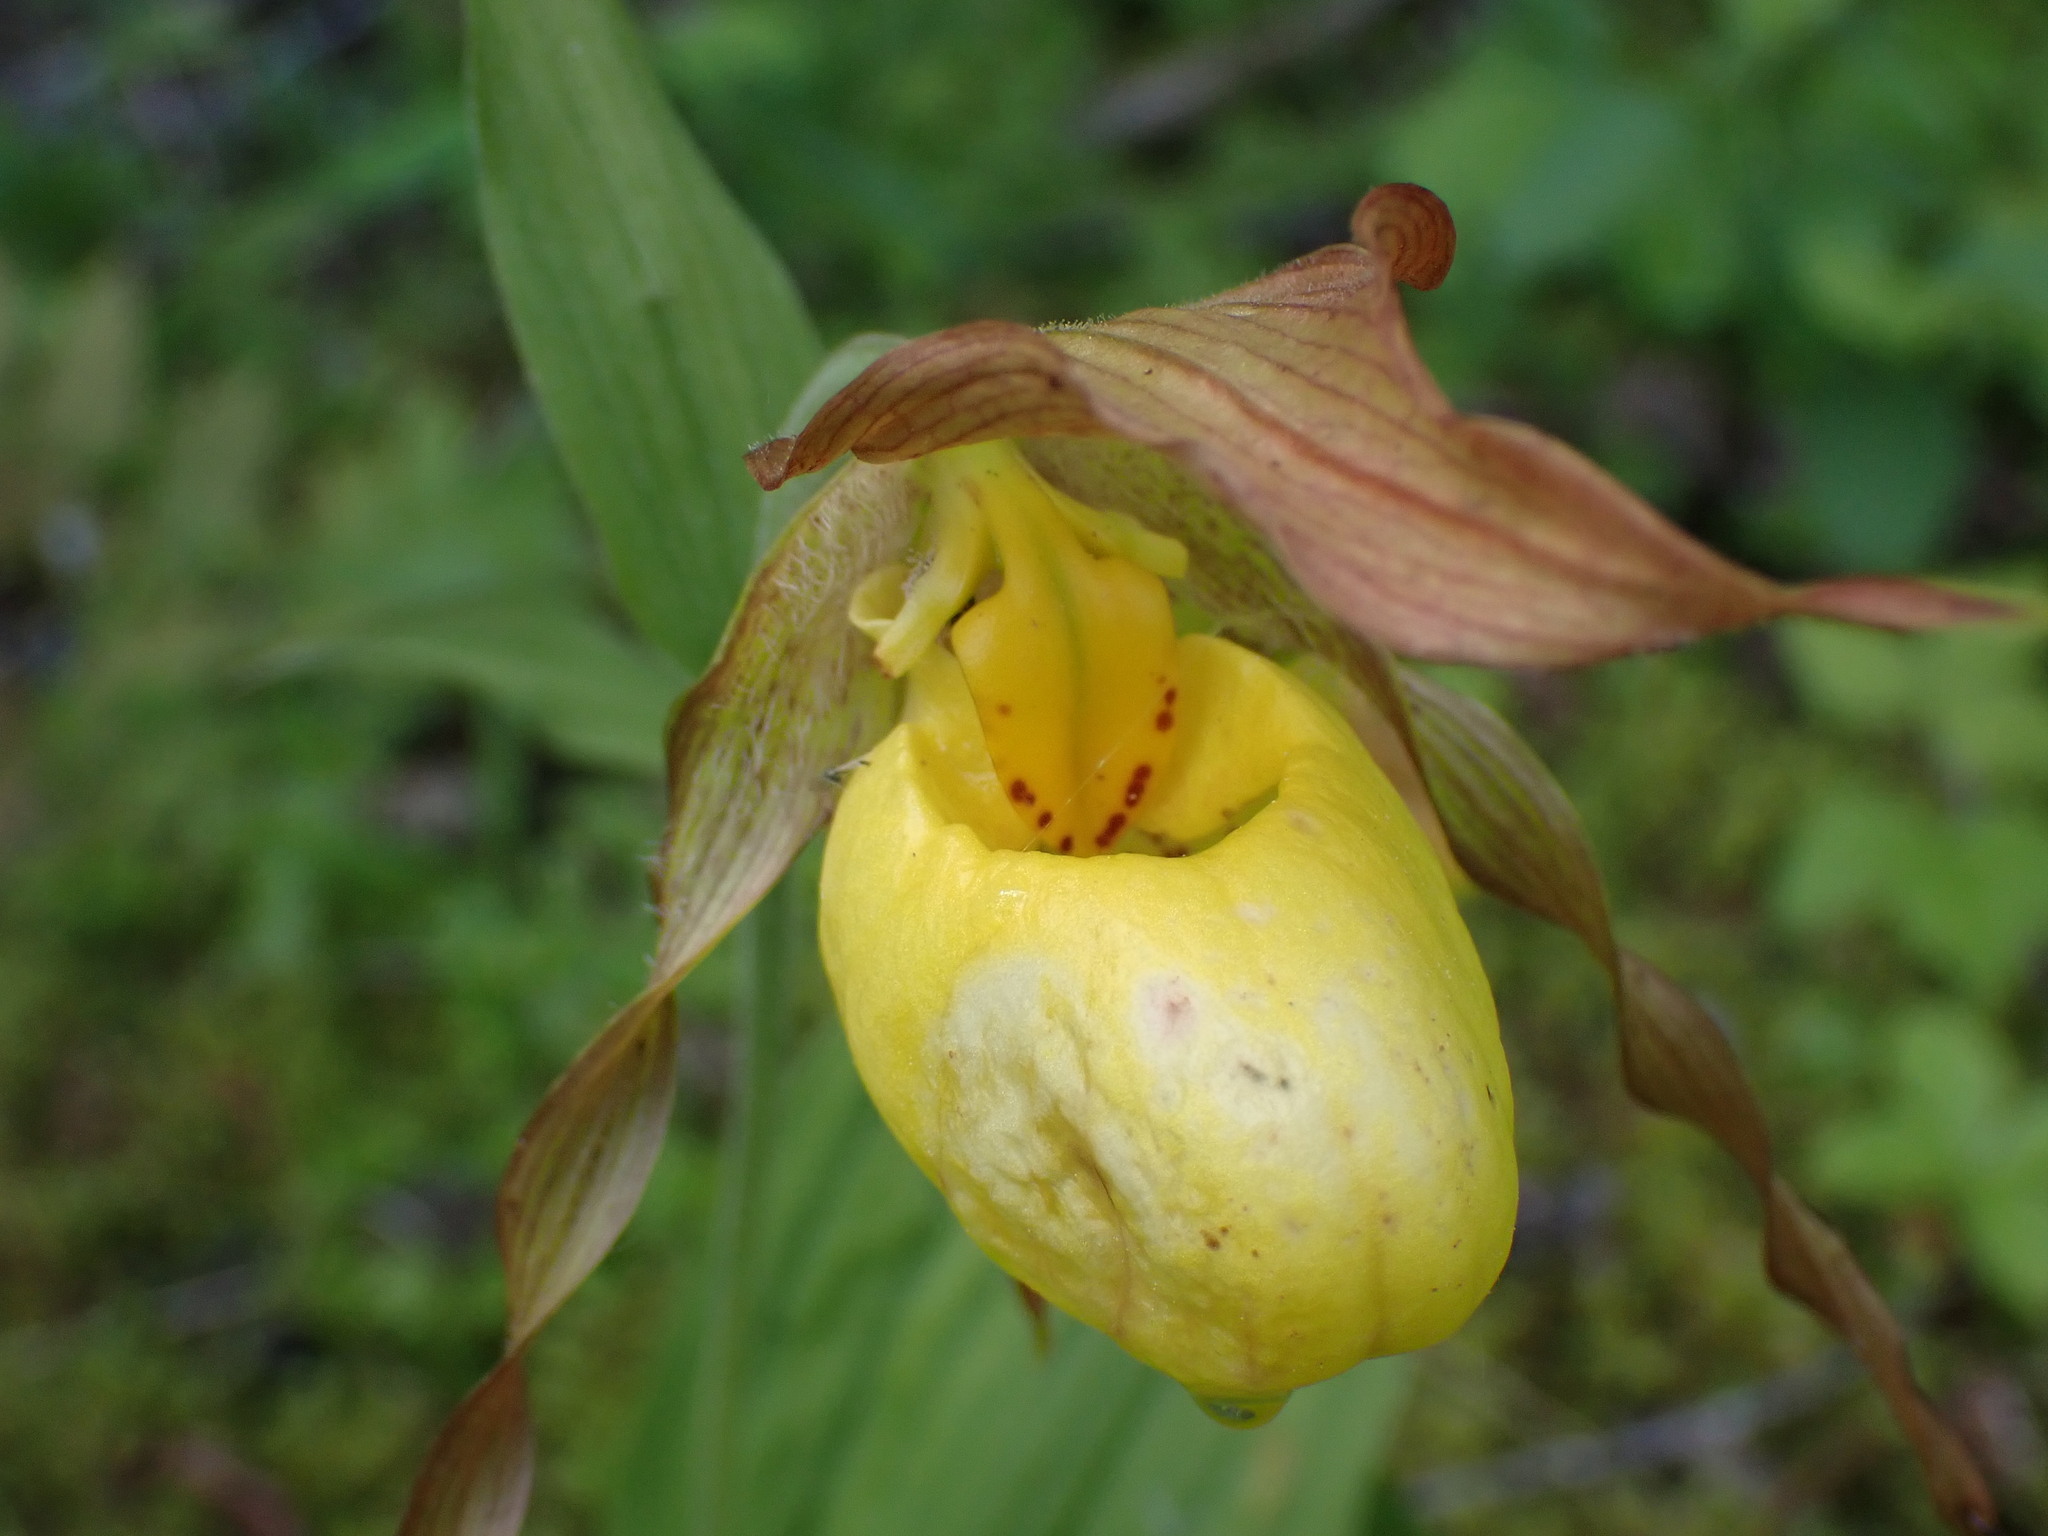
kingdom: Plantae
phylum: Tracheophyta
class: Liliopsida
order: Asparagales
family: Orchidaceae
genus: Cypripedium
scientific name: Cypripedium parviflorum
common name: American yellow lady's-slipper
